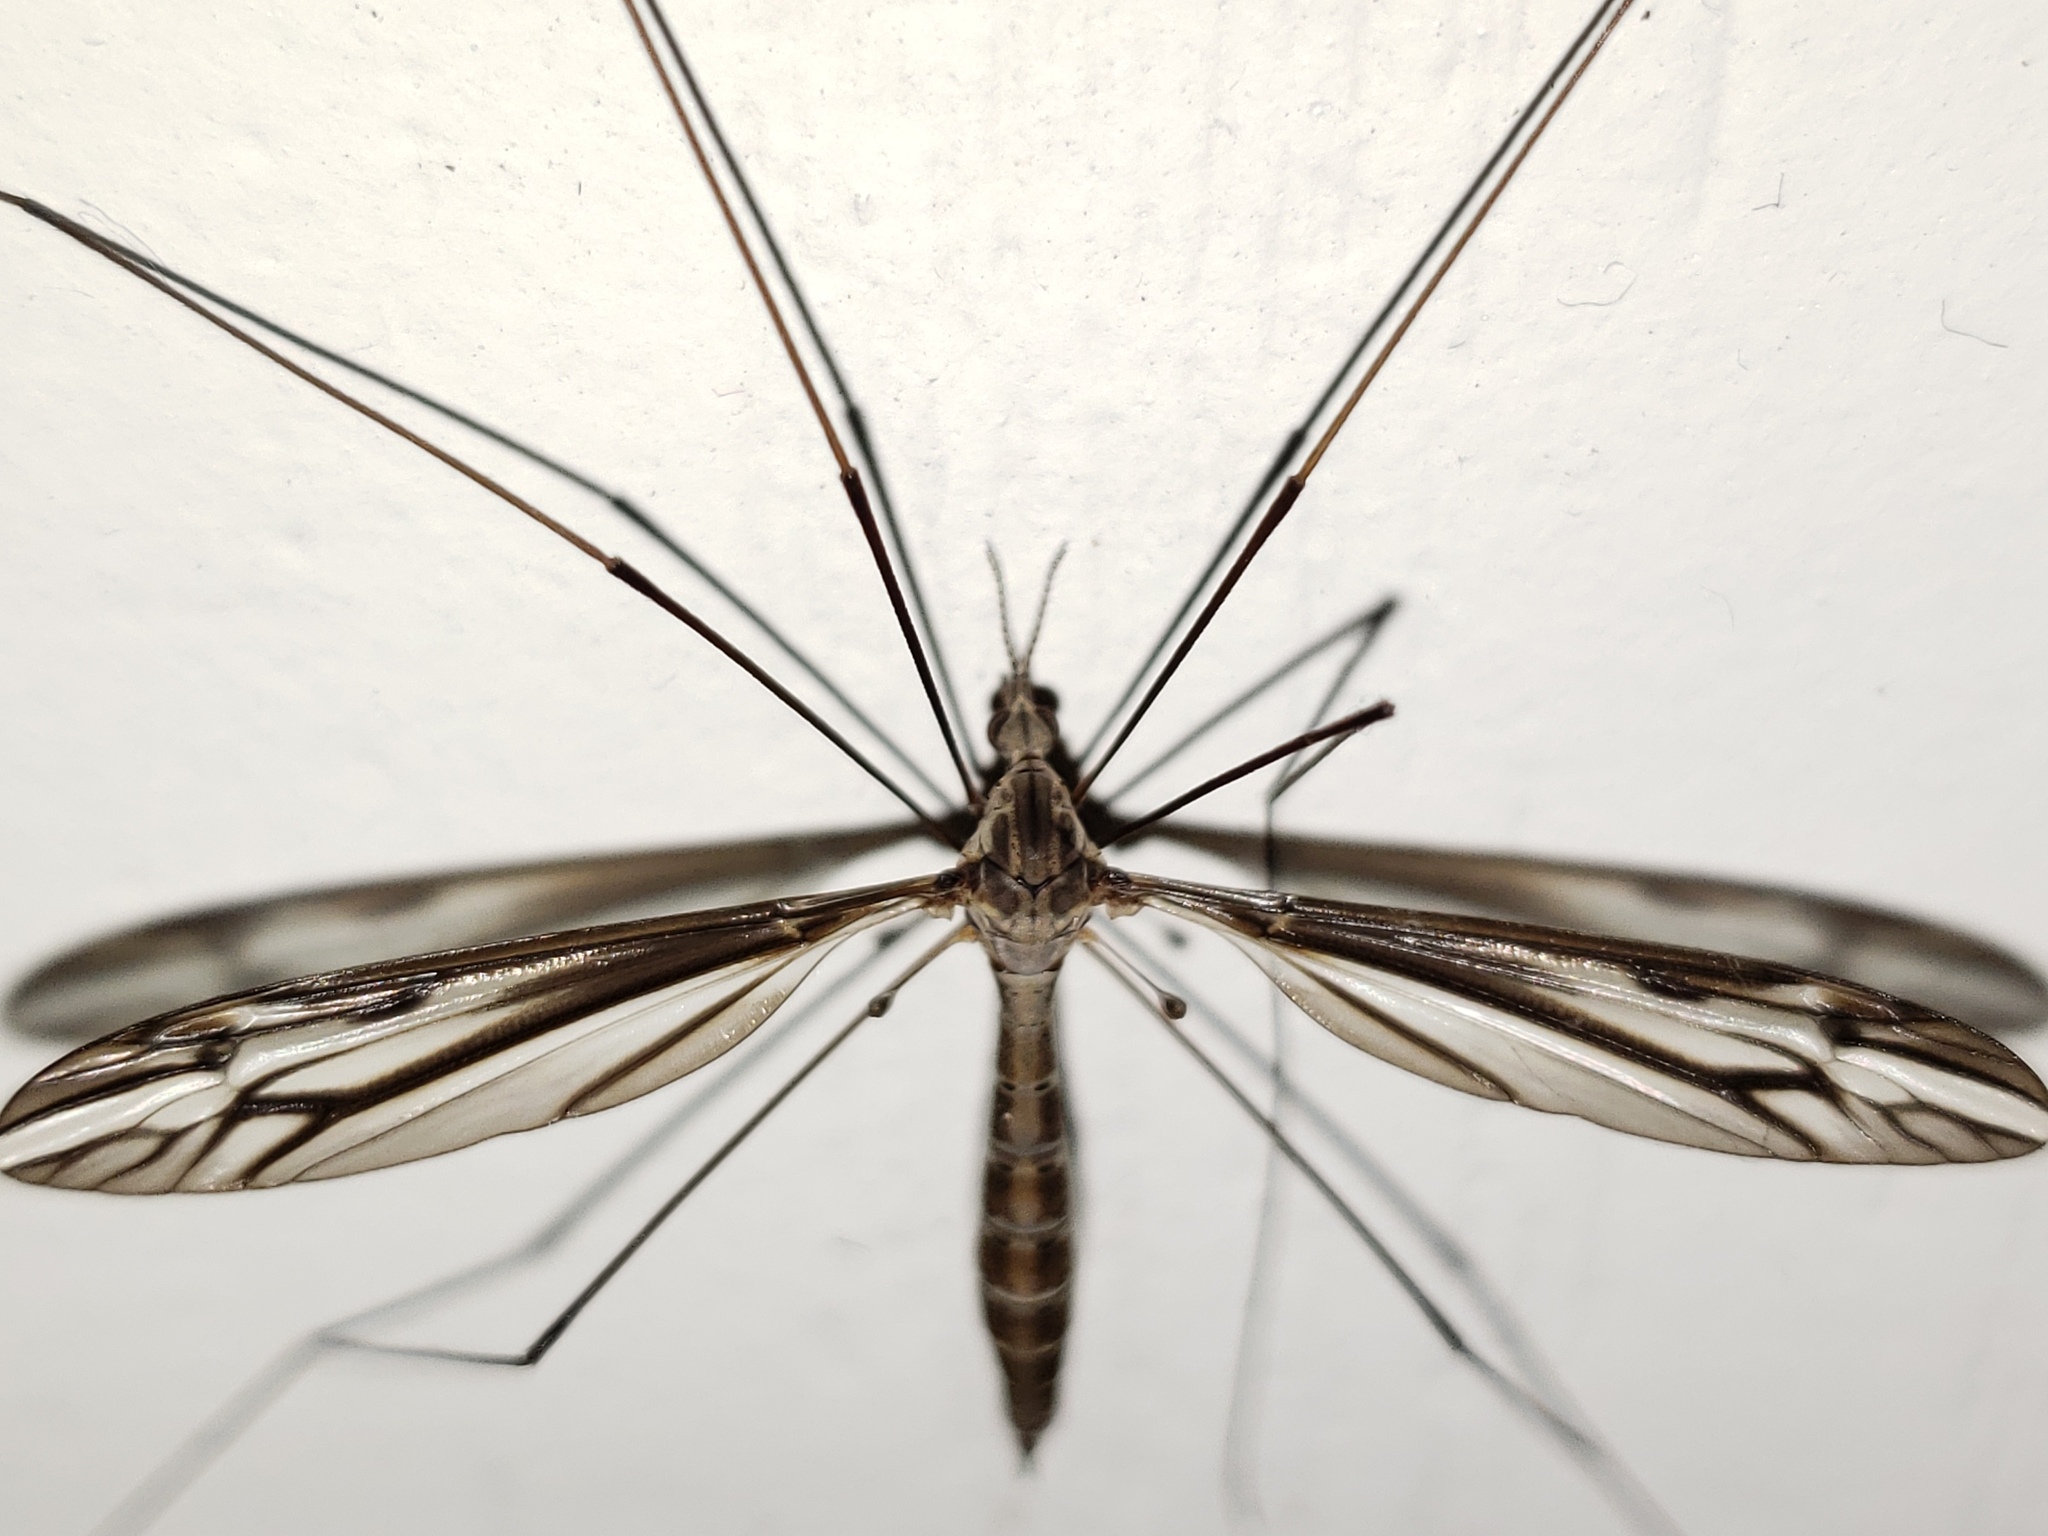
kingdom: Animalia
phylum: Arthropoda
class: Insecta
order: Diptera
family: Tipulidae
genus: Tipula
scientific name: Tipula furca
